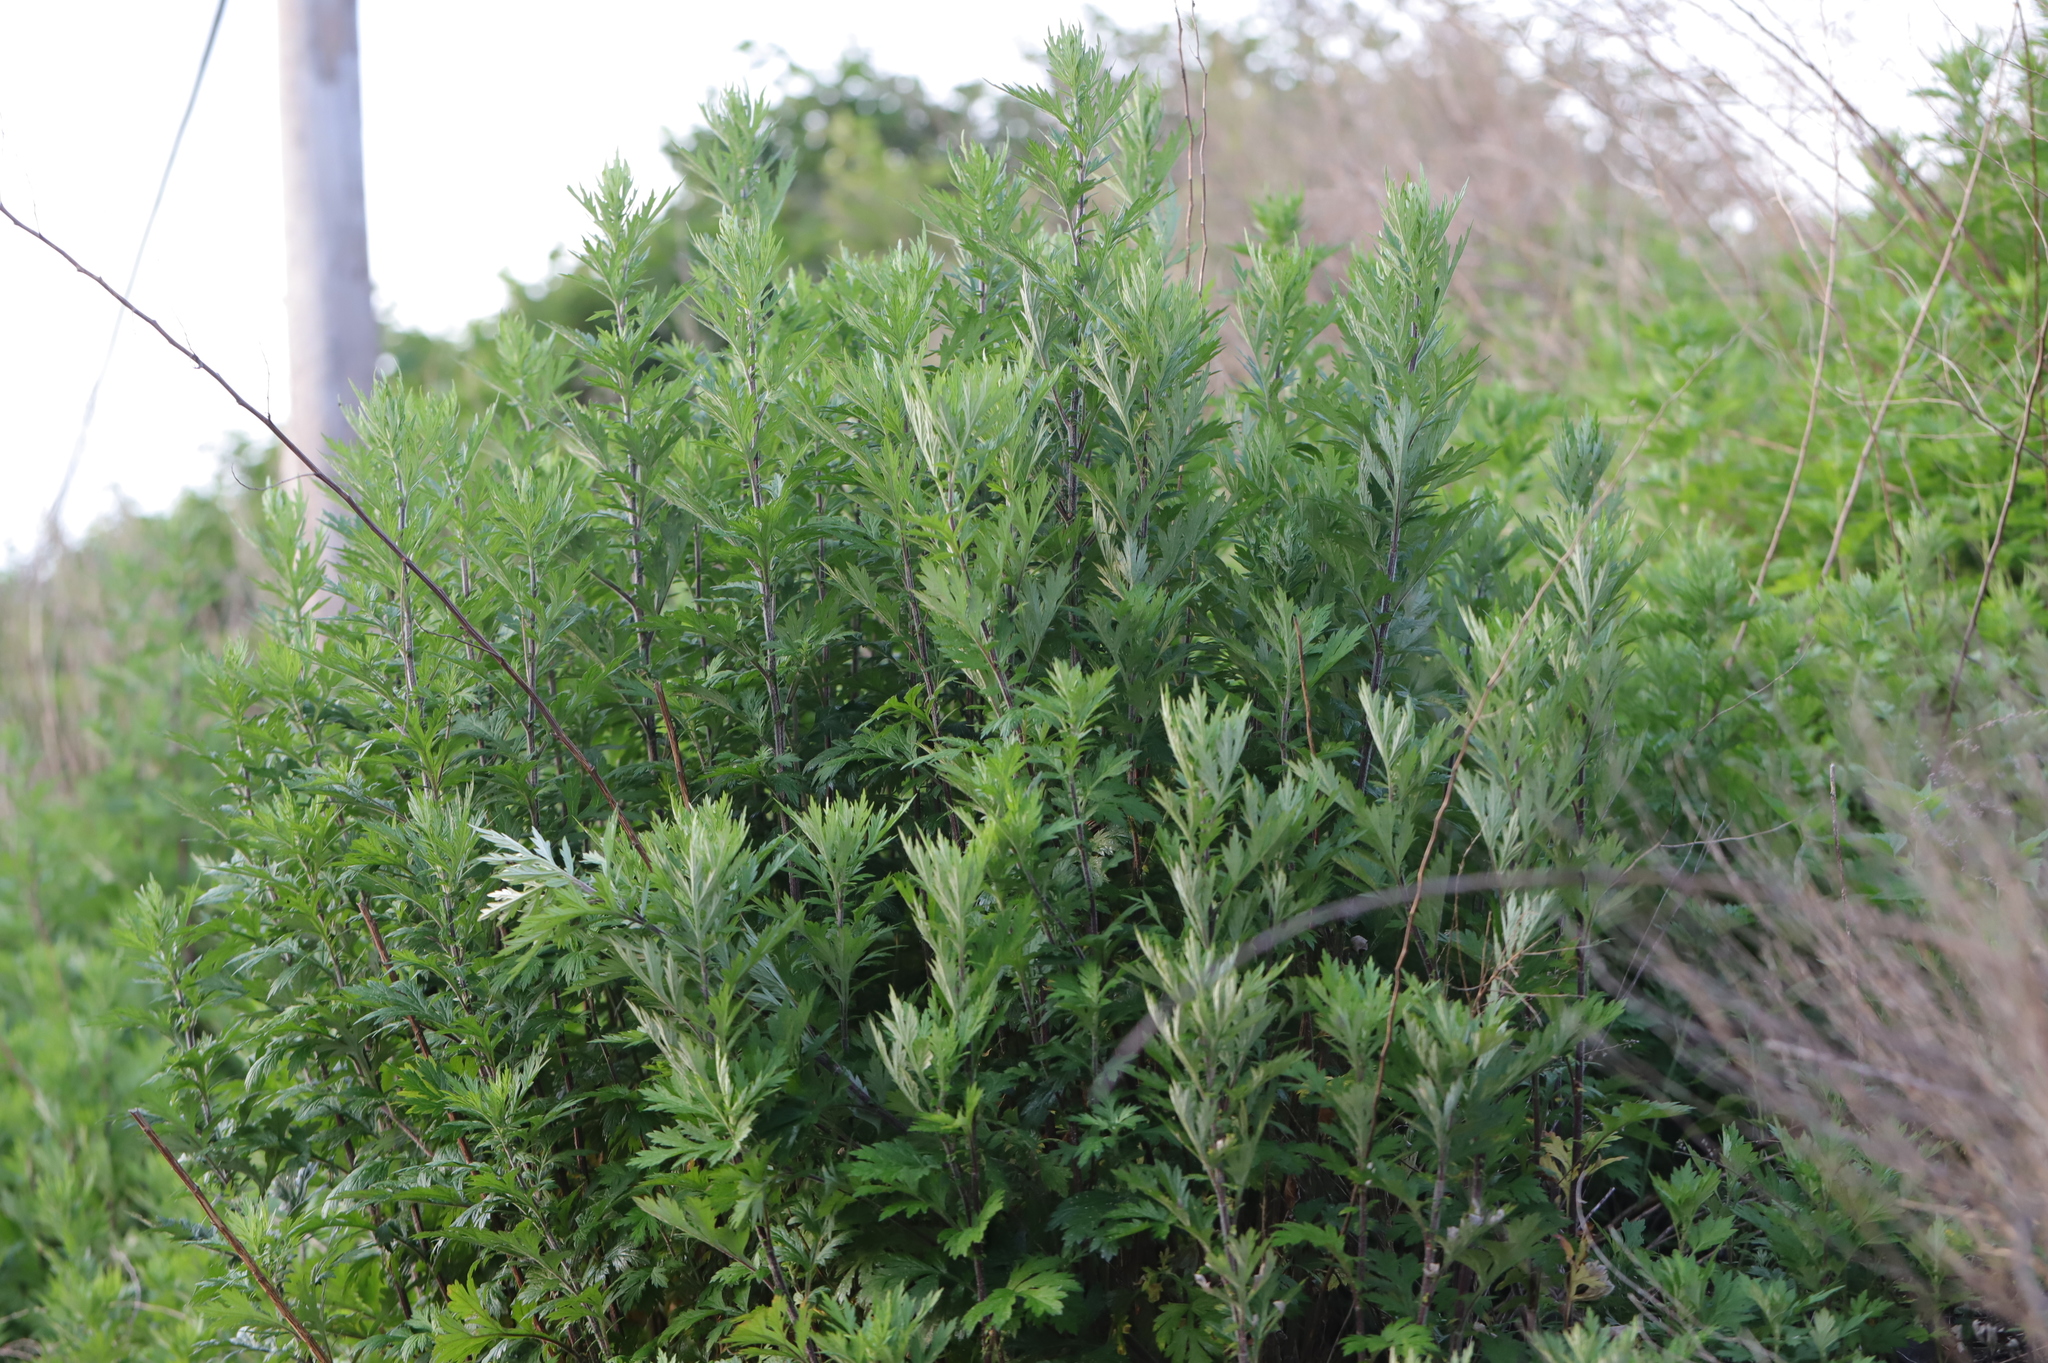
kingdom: Plantae
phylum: Tracheophyta
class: Magnoliopsida
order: Asterales
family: Asteraceae
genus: Artemisia
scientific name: Artemisia vulgaris
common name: Mugwort
